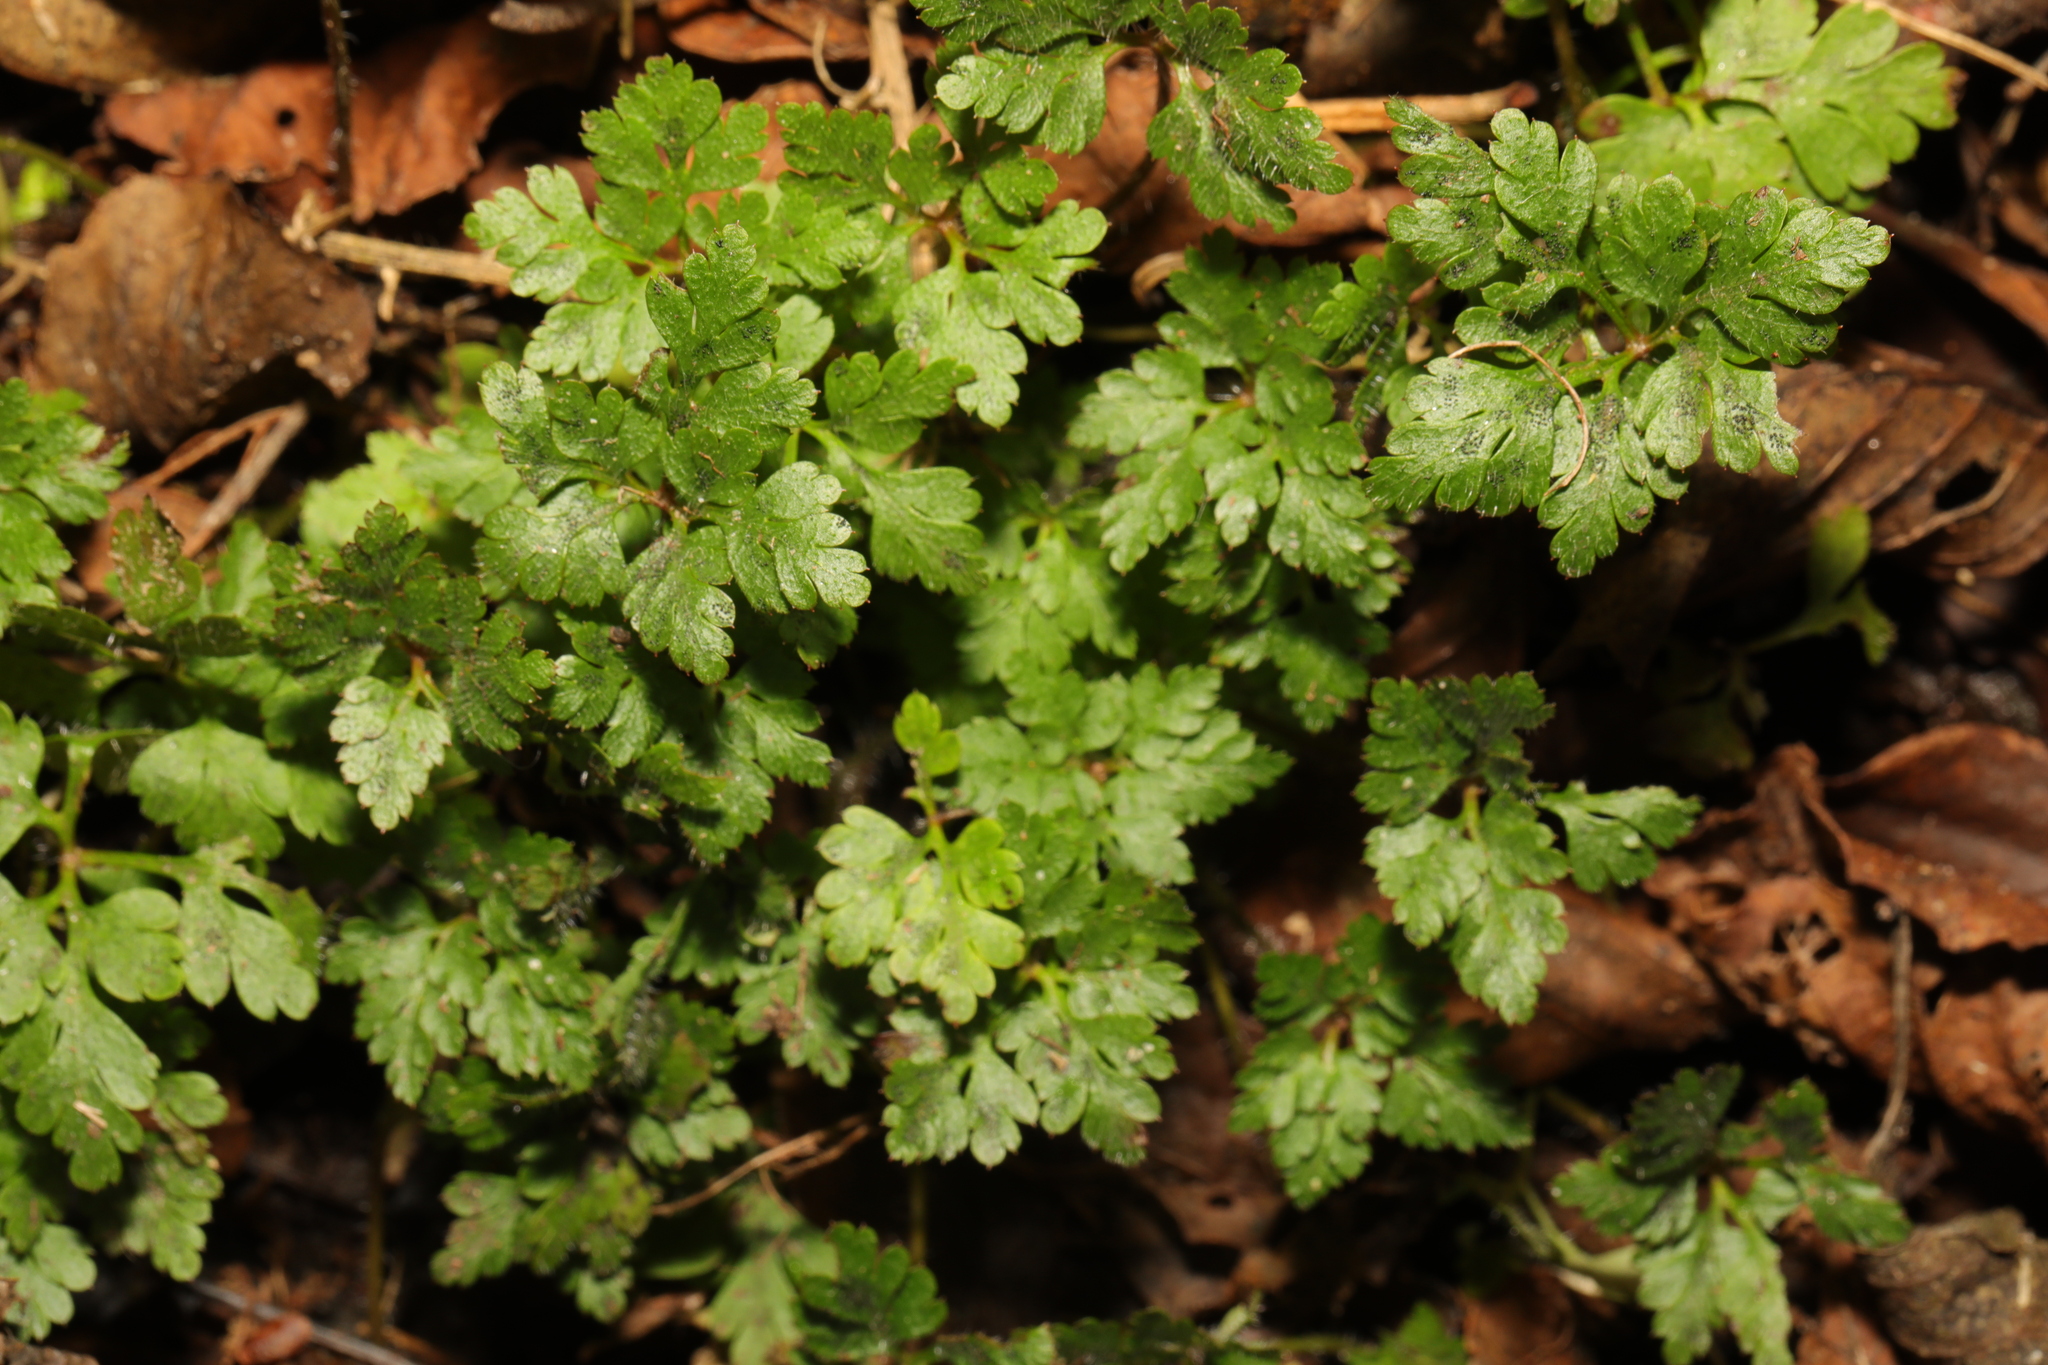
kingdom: Plantae
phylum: Tracheophyta
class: Magnoliopsida
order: Geraniales
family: Geraniaceae
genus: Geranium
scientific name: Geranium robertianum
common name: Herb-robert
